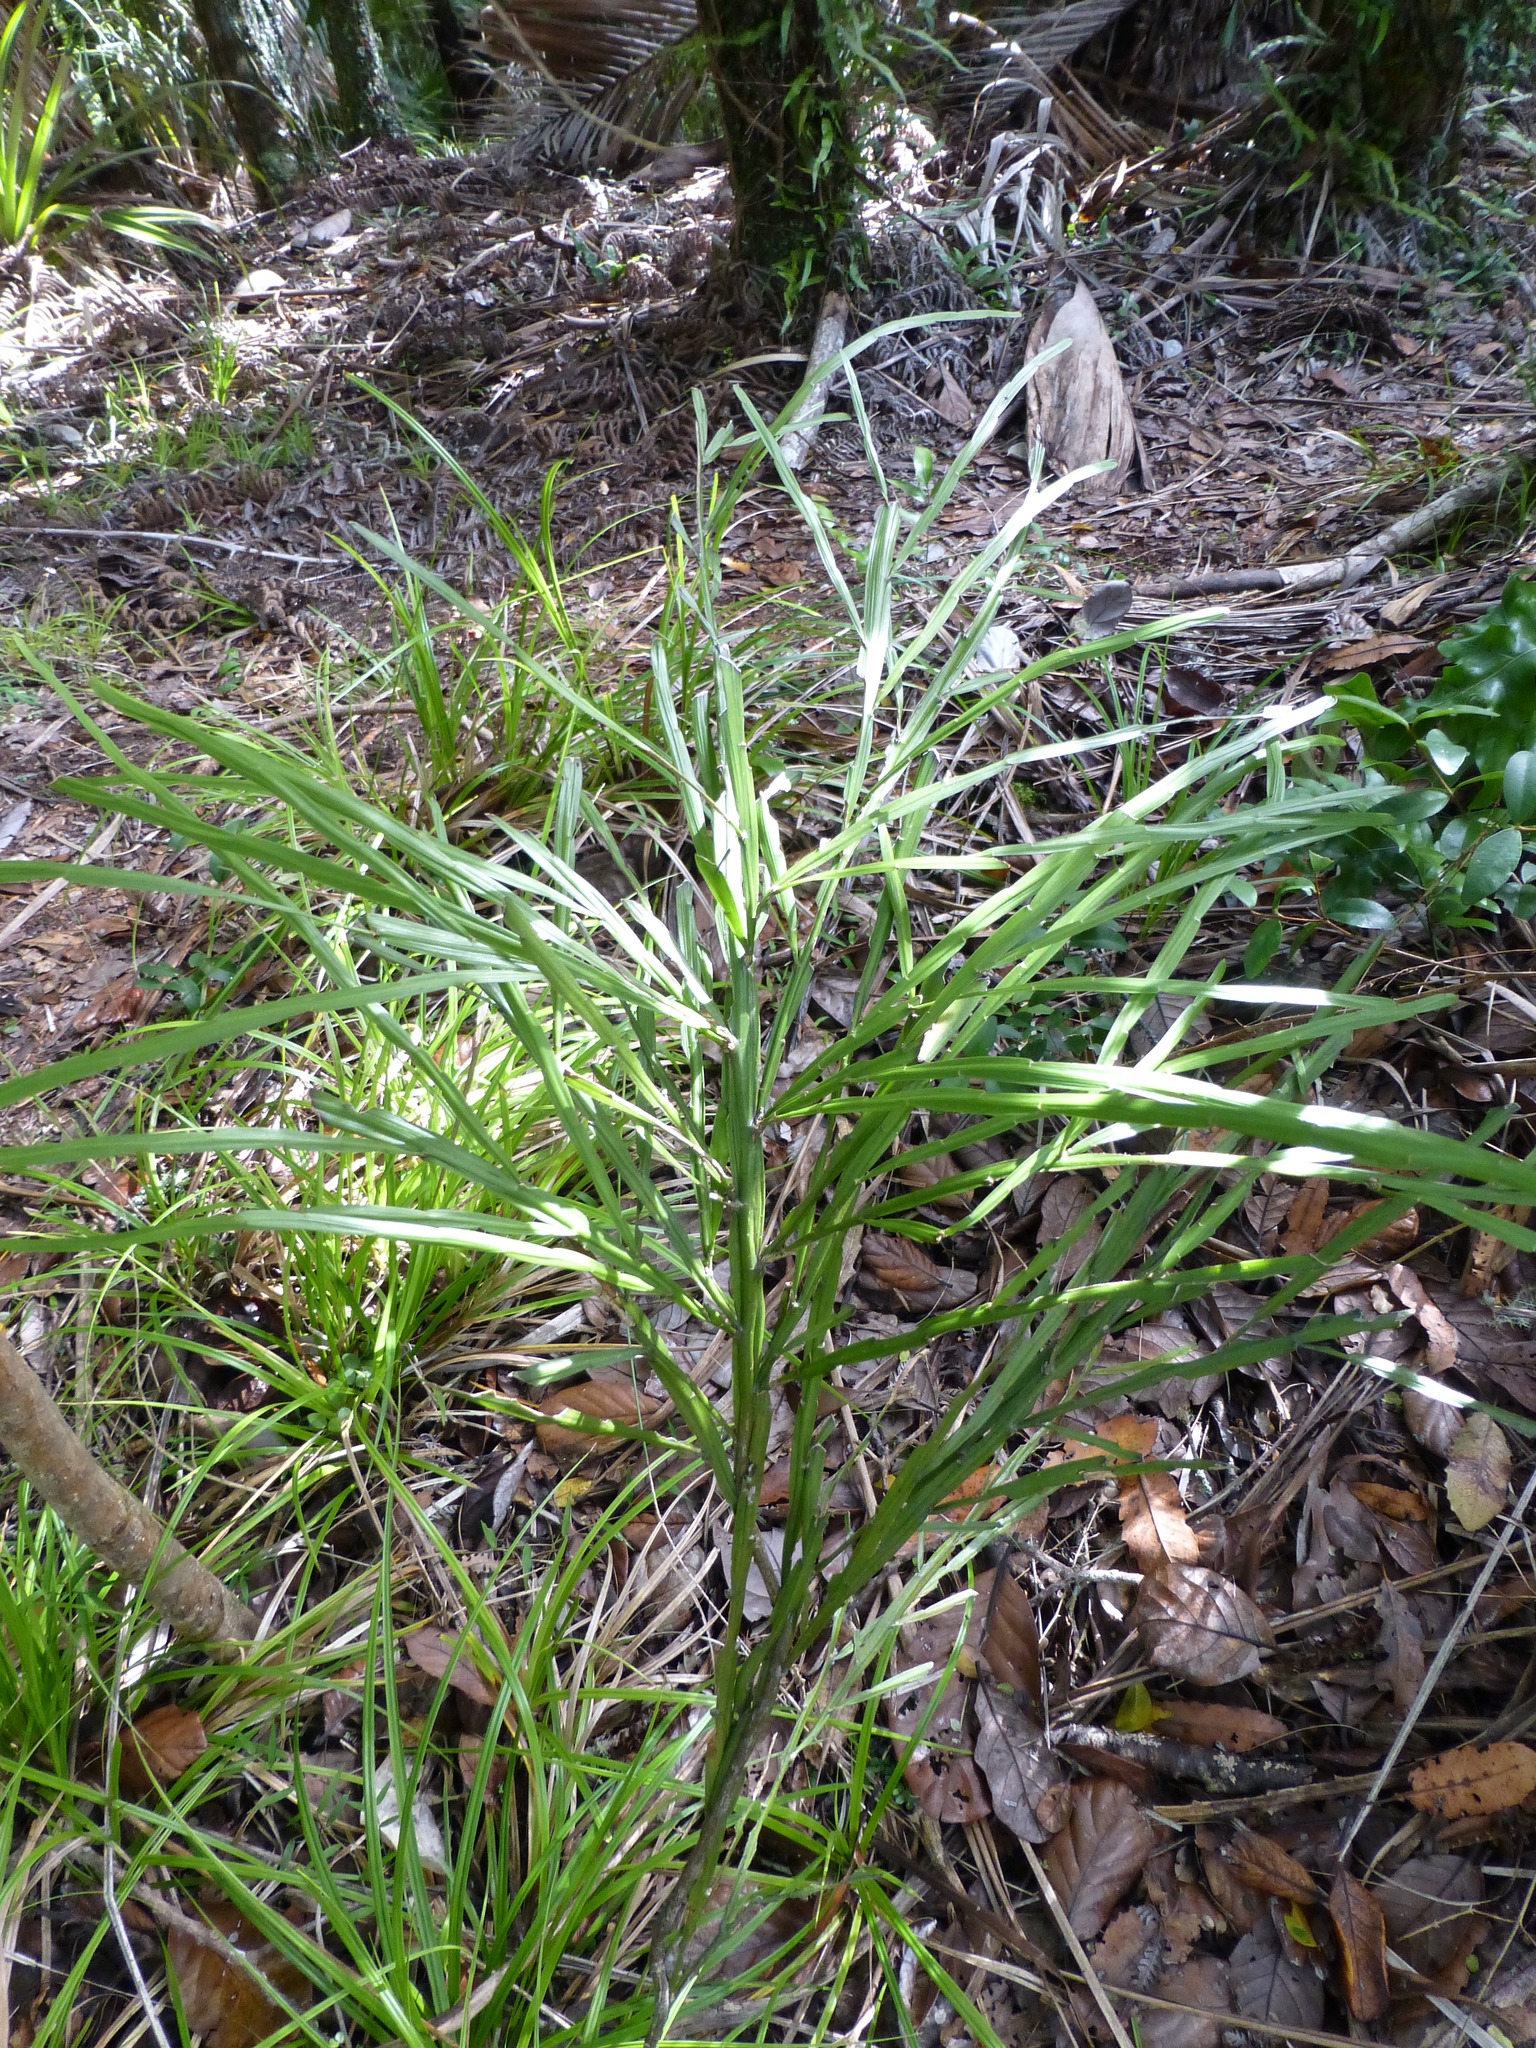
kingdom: Plantae
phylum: Tracheophyta
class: Magnoliopsida
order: Fabales
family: Fabaceae
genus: Carmichaelia
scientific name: Carmichaelia australis
